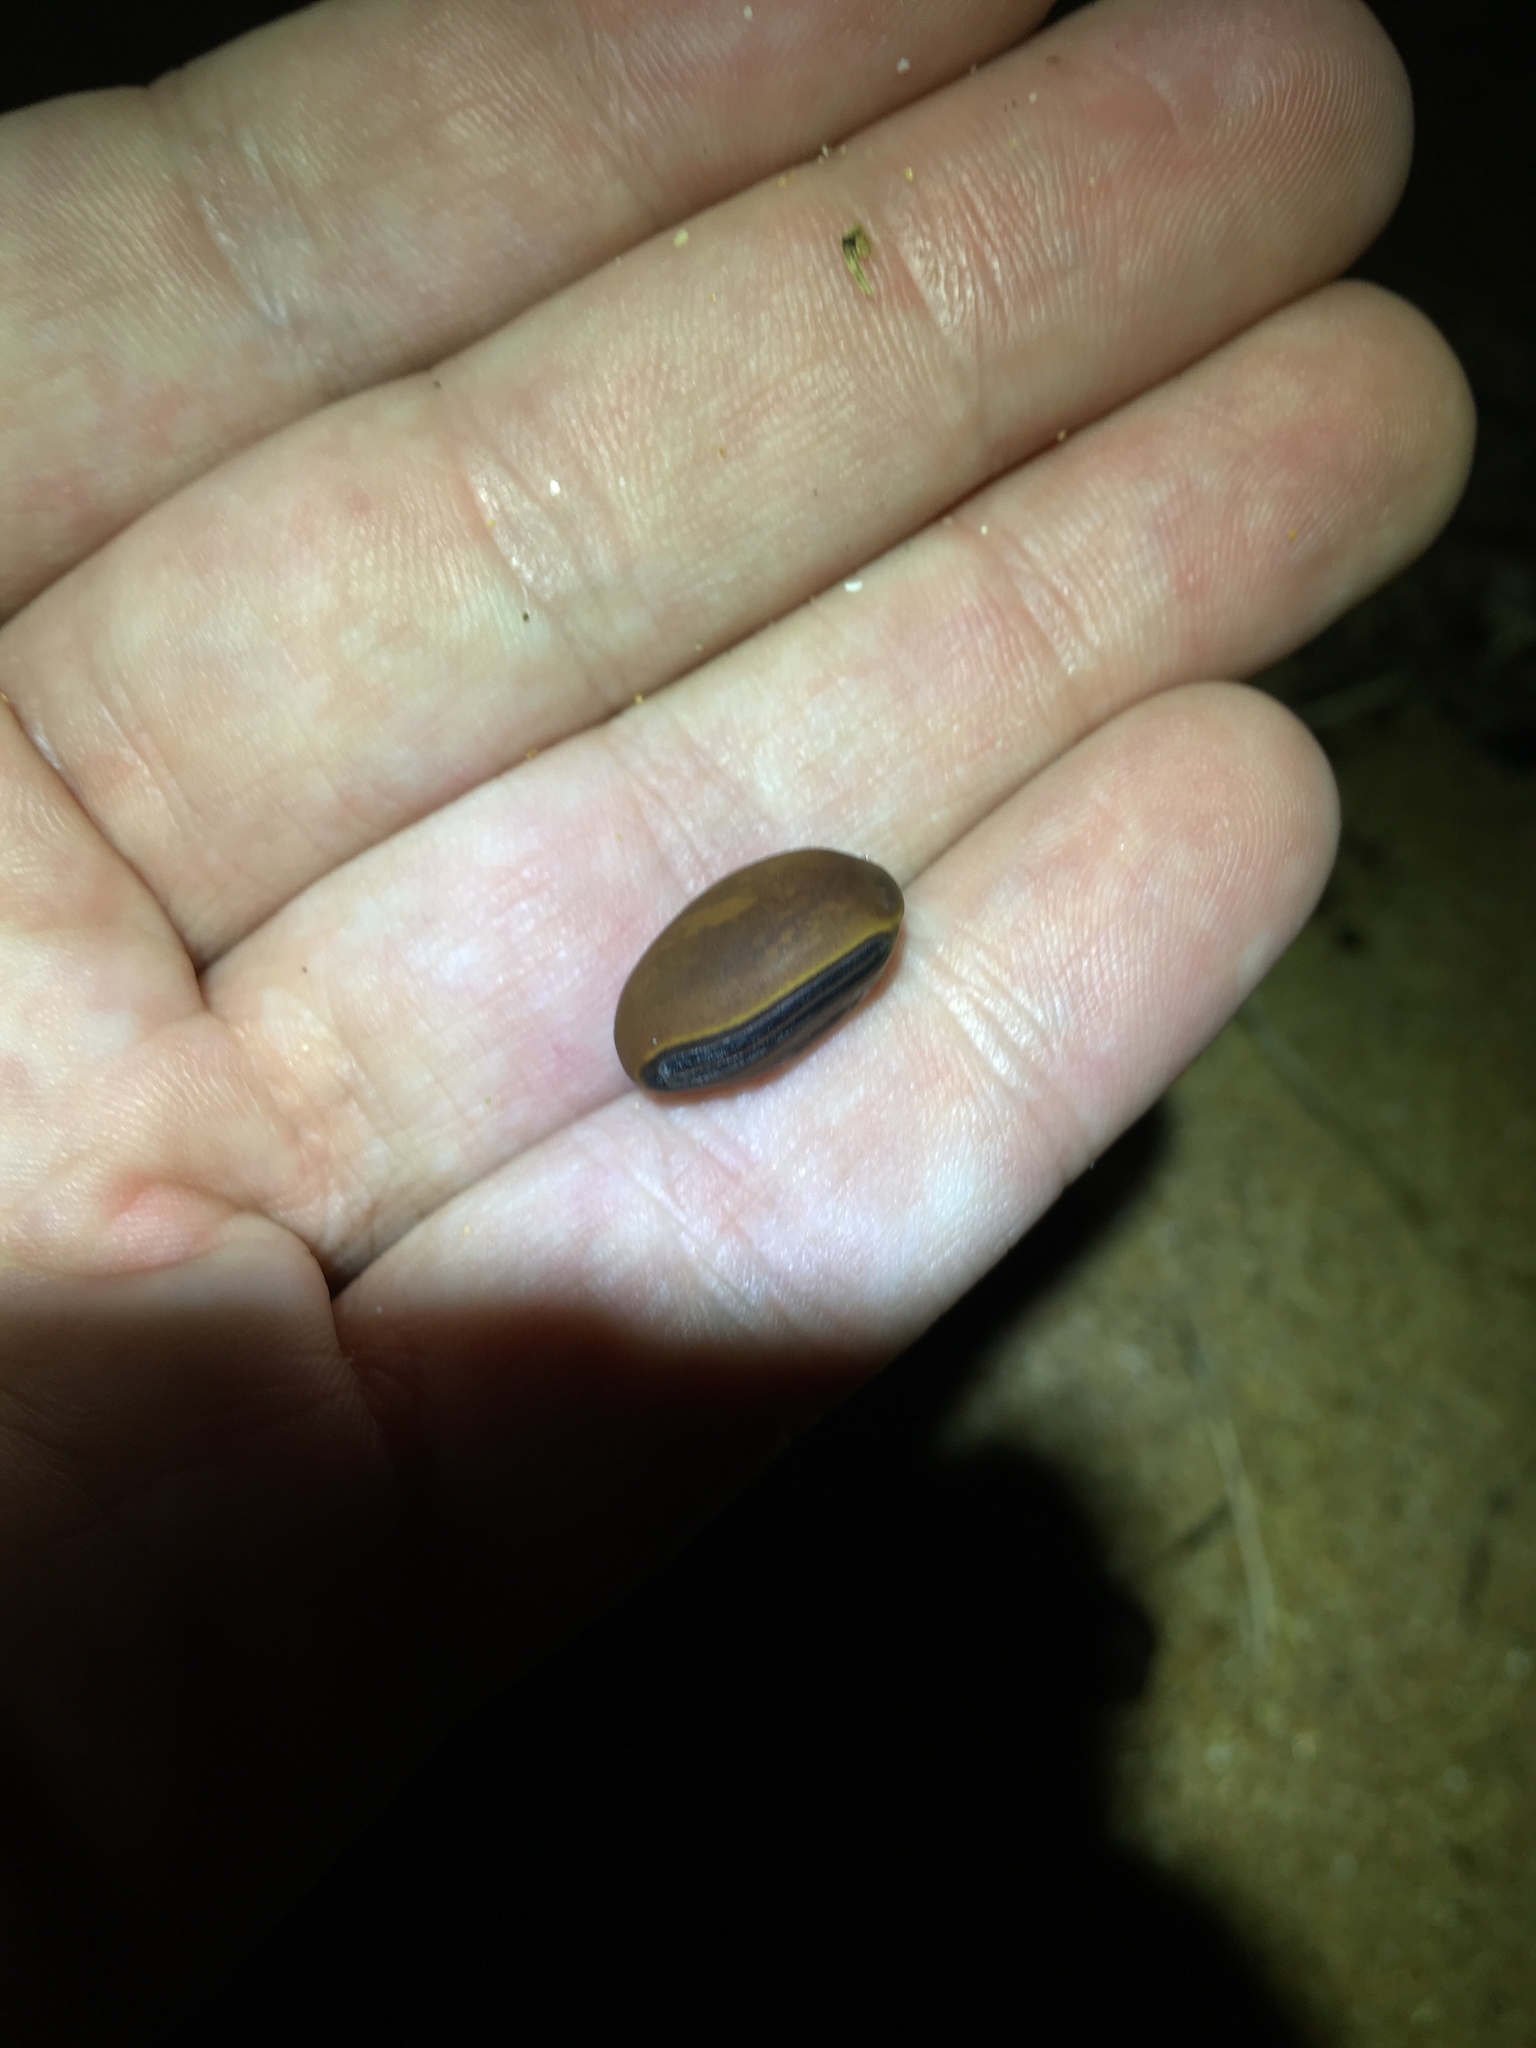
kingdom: Plantae
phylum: Tracheophyta
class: Magnoliopsida
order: Fabales
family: Fabaceae
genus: Canavalia
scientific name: Canavalia cathartica
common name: Maunaloa
